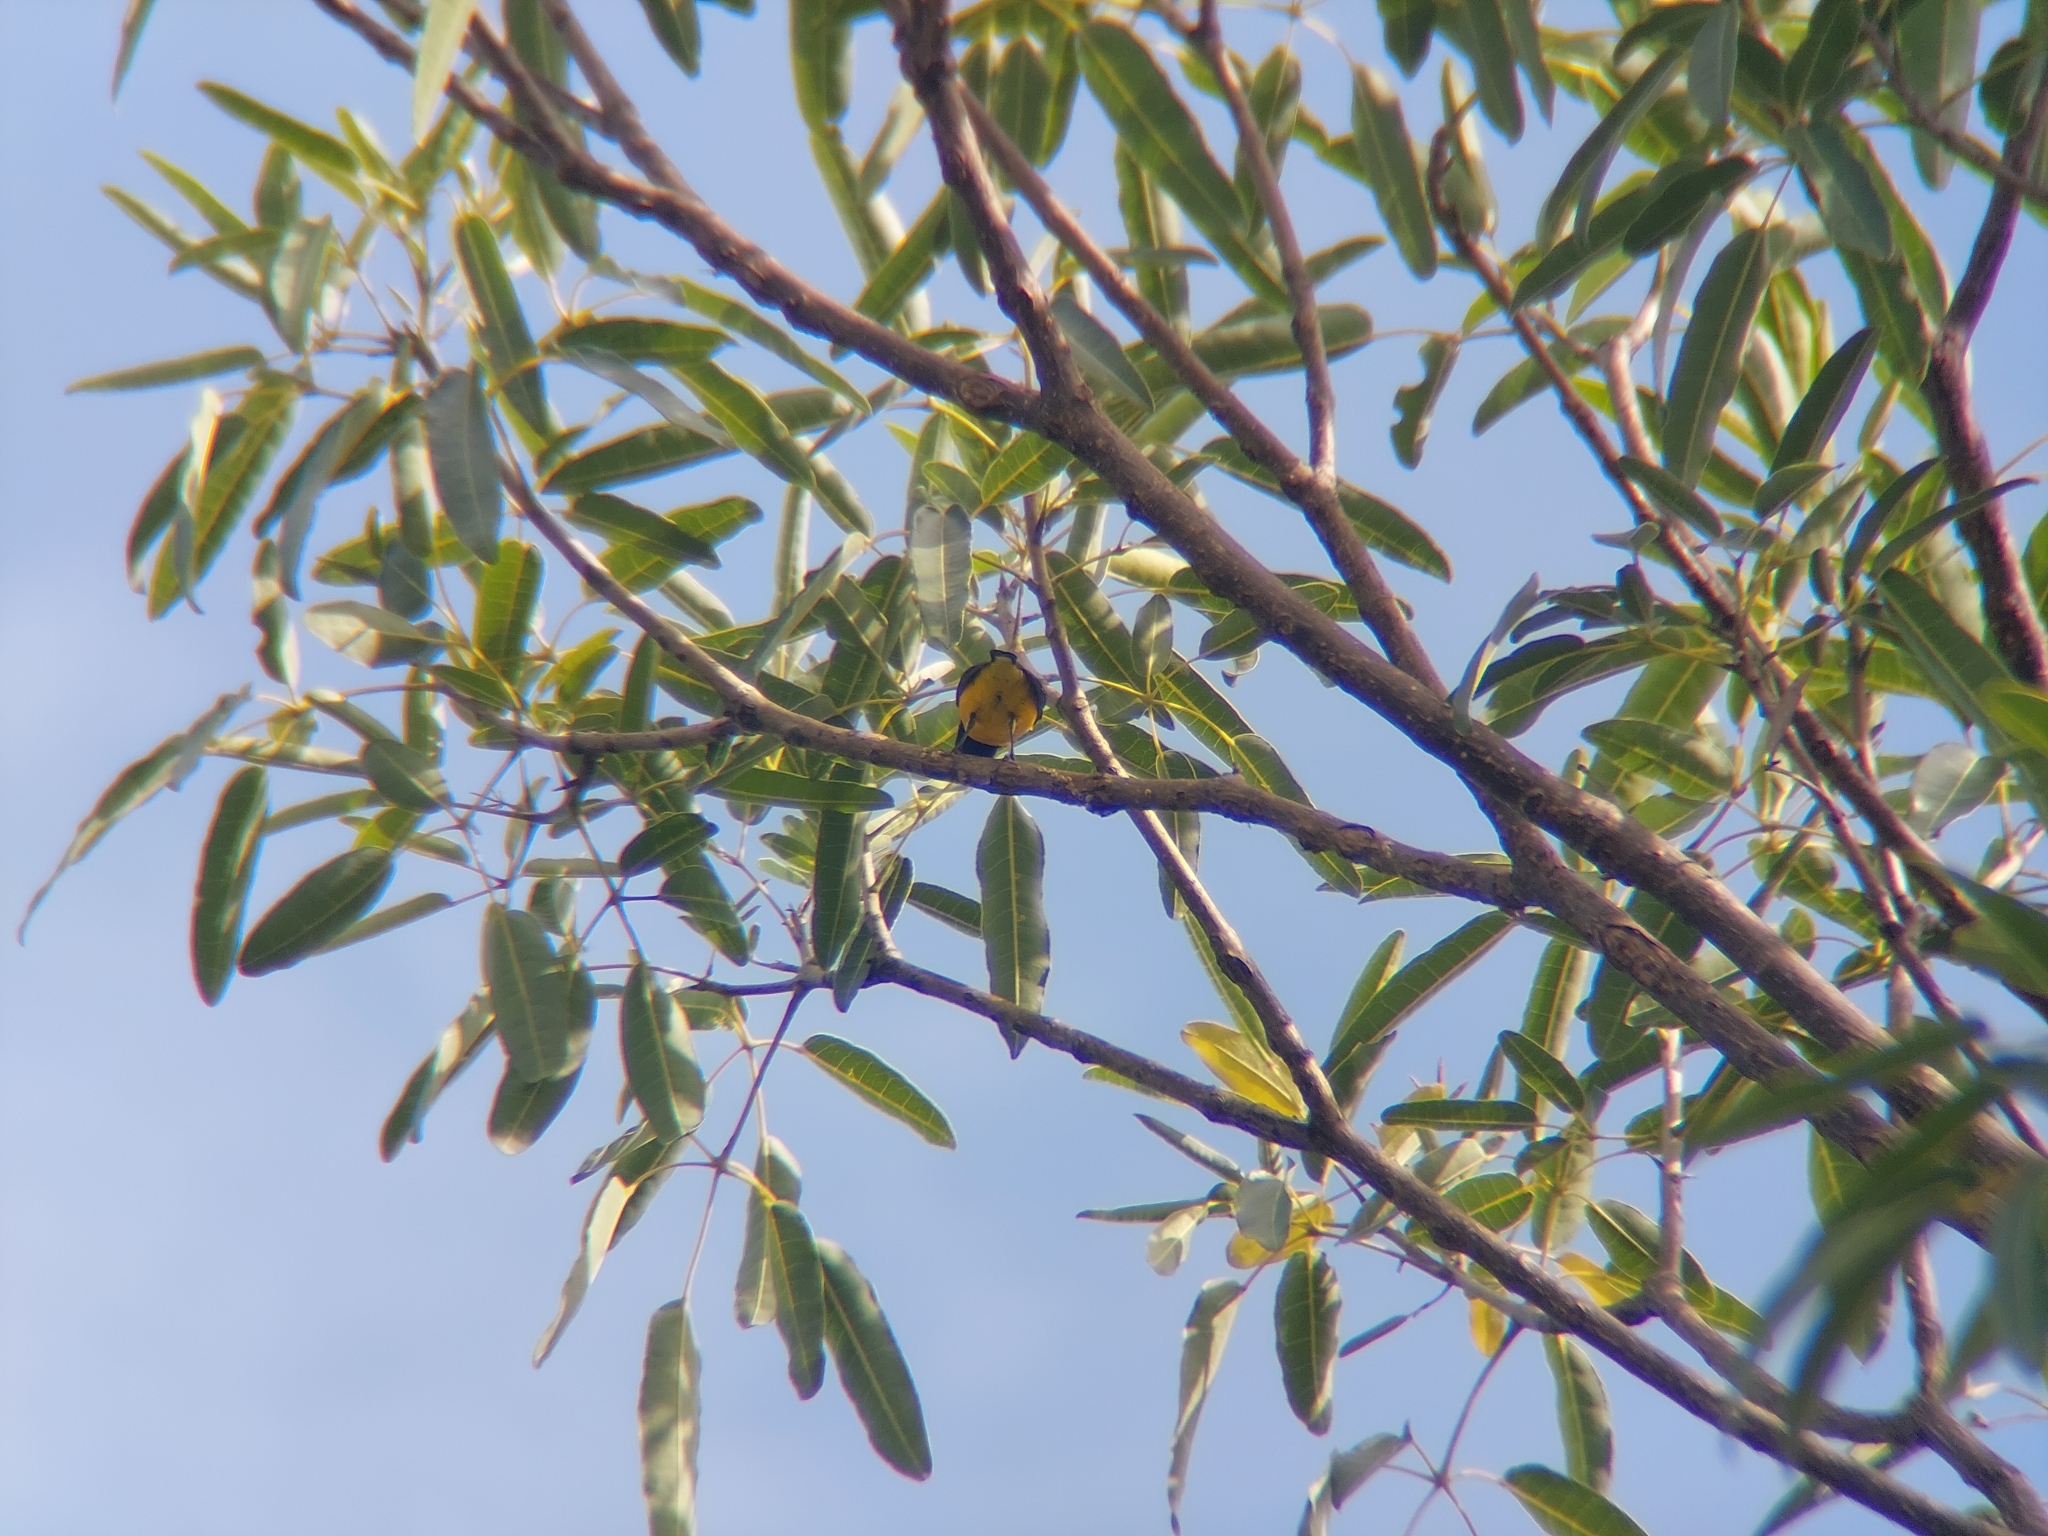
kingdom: Animalia
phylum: Chordata
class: Aves
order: Passeriformes
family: Fringillidae
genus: Euphonia
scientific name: Euphonia chlorotica
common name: Purple-throated euphonia
